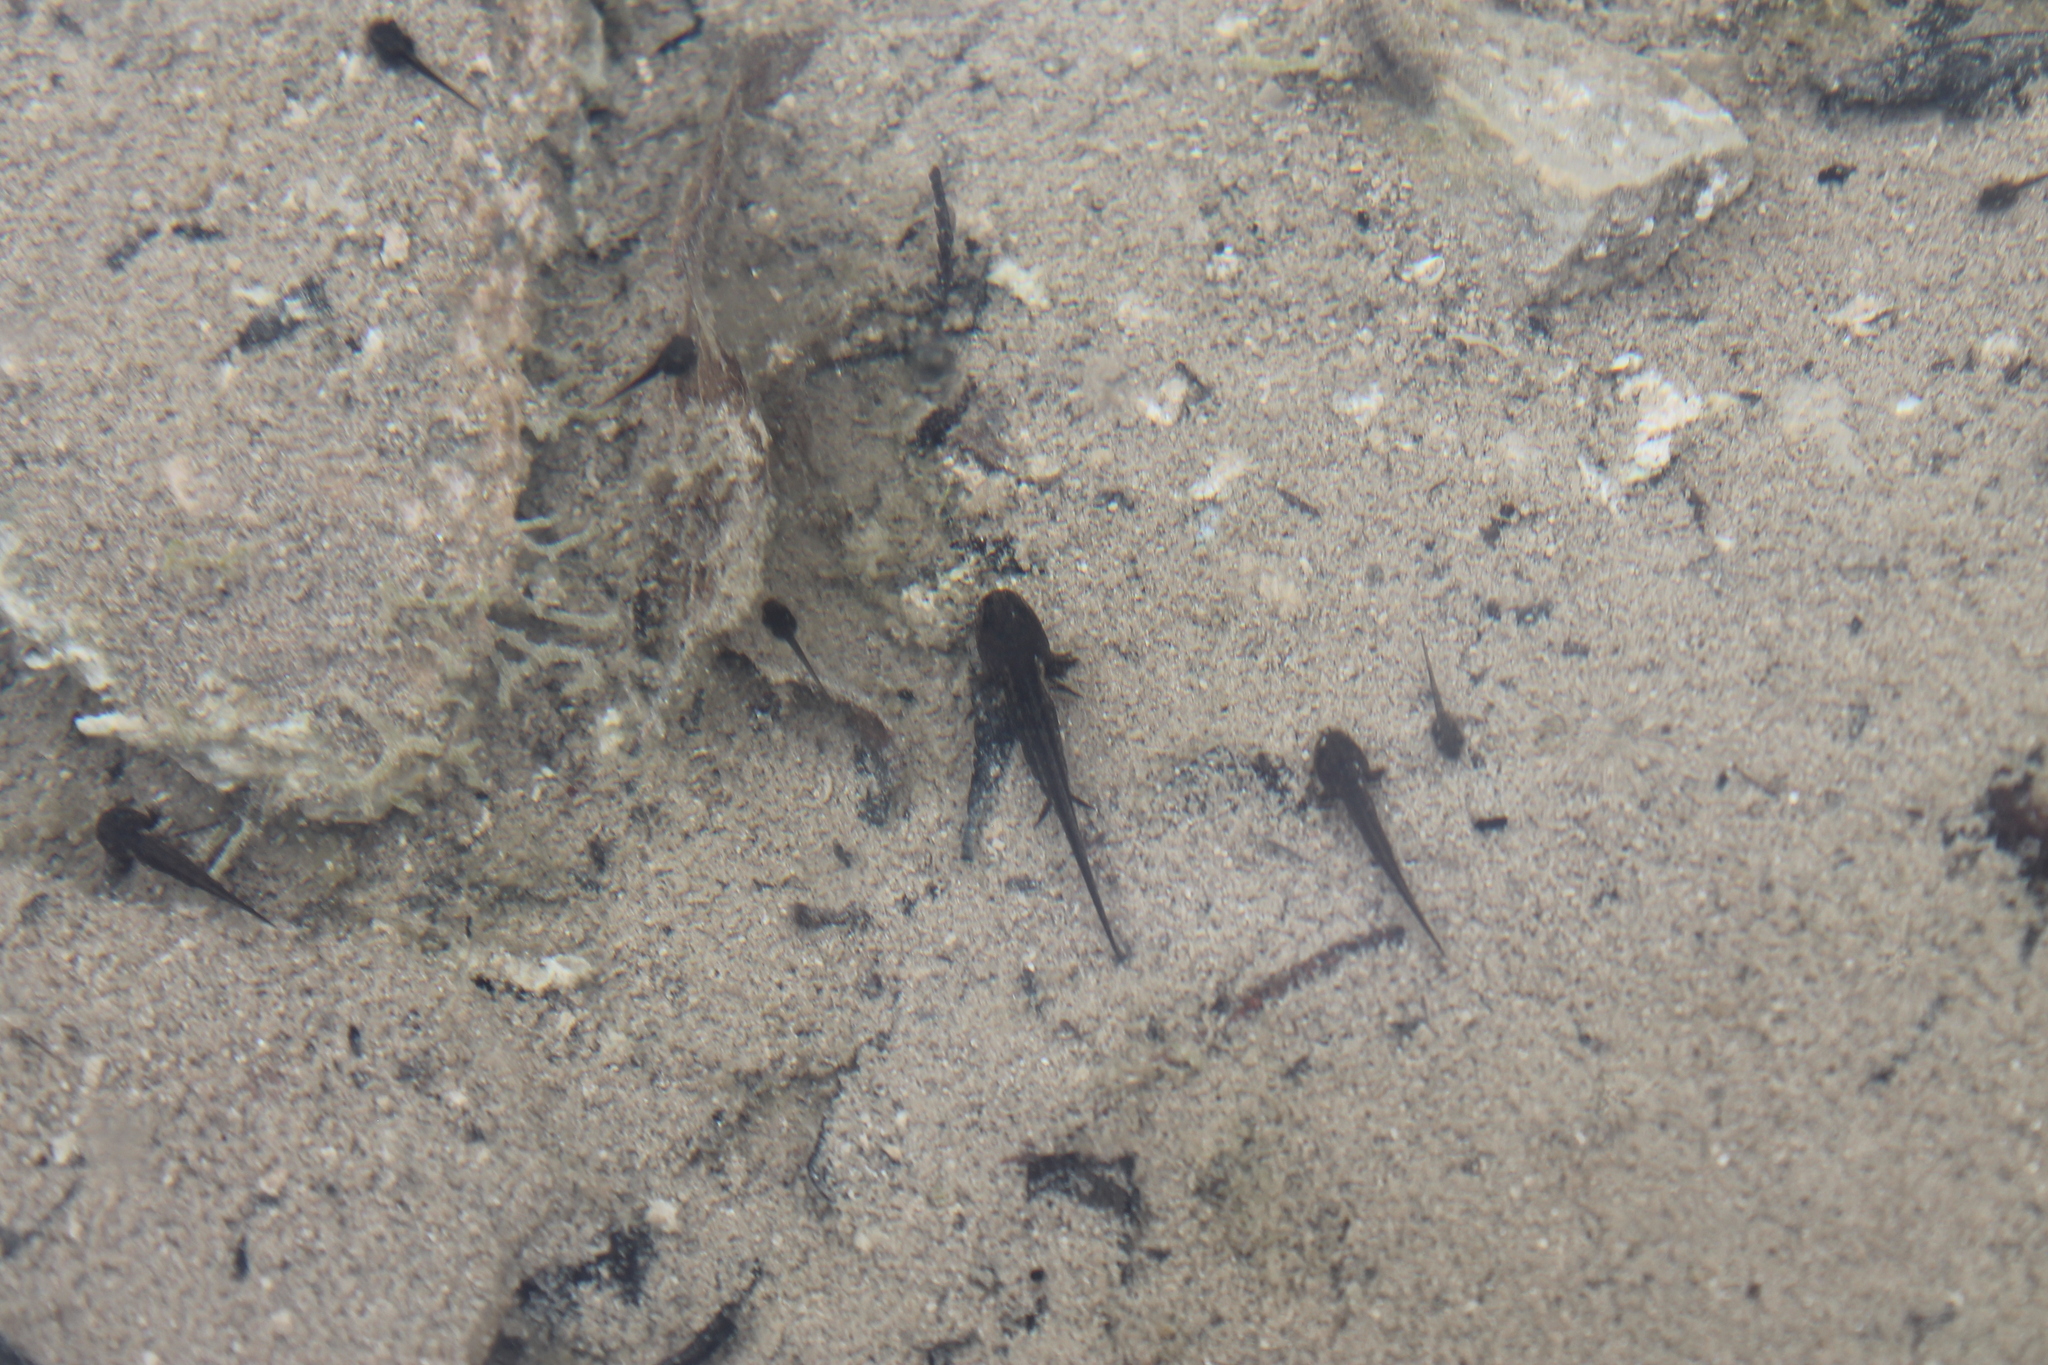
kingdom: Animalia
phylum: Chordata
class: Amphibia
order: Caudata
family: Ambystomatidae
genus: Ambystoma
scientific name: Ambystoma barbouri
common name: Streamside salamander
